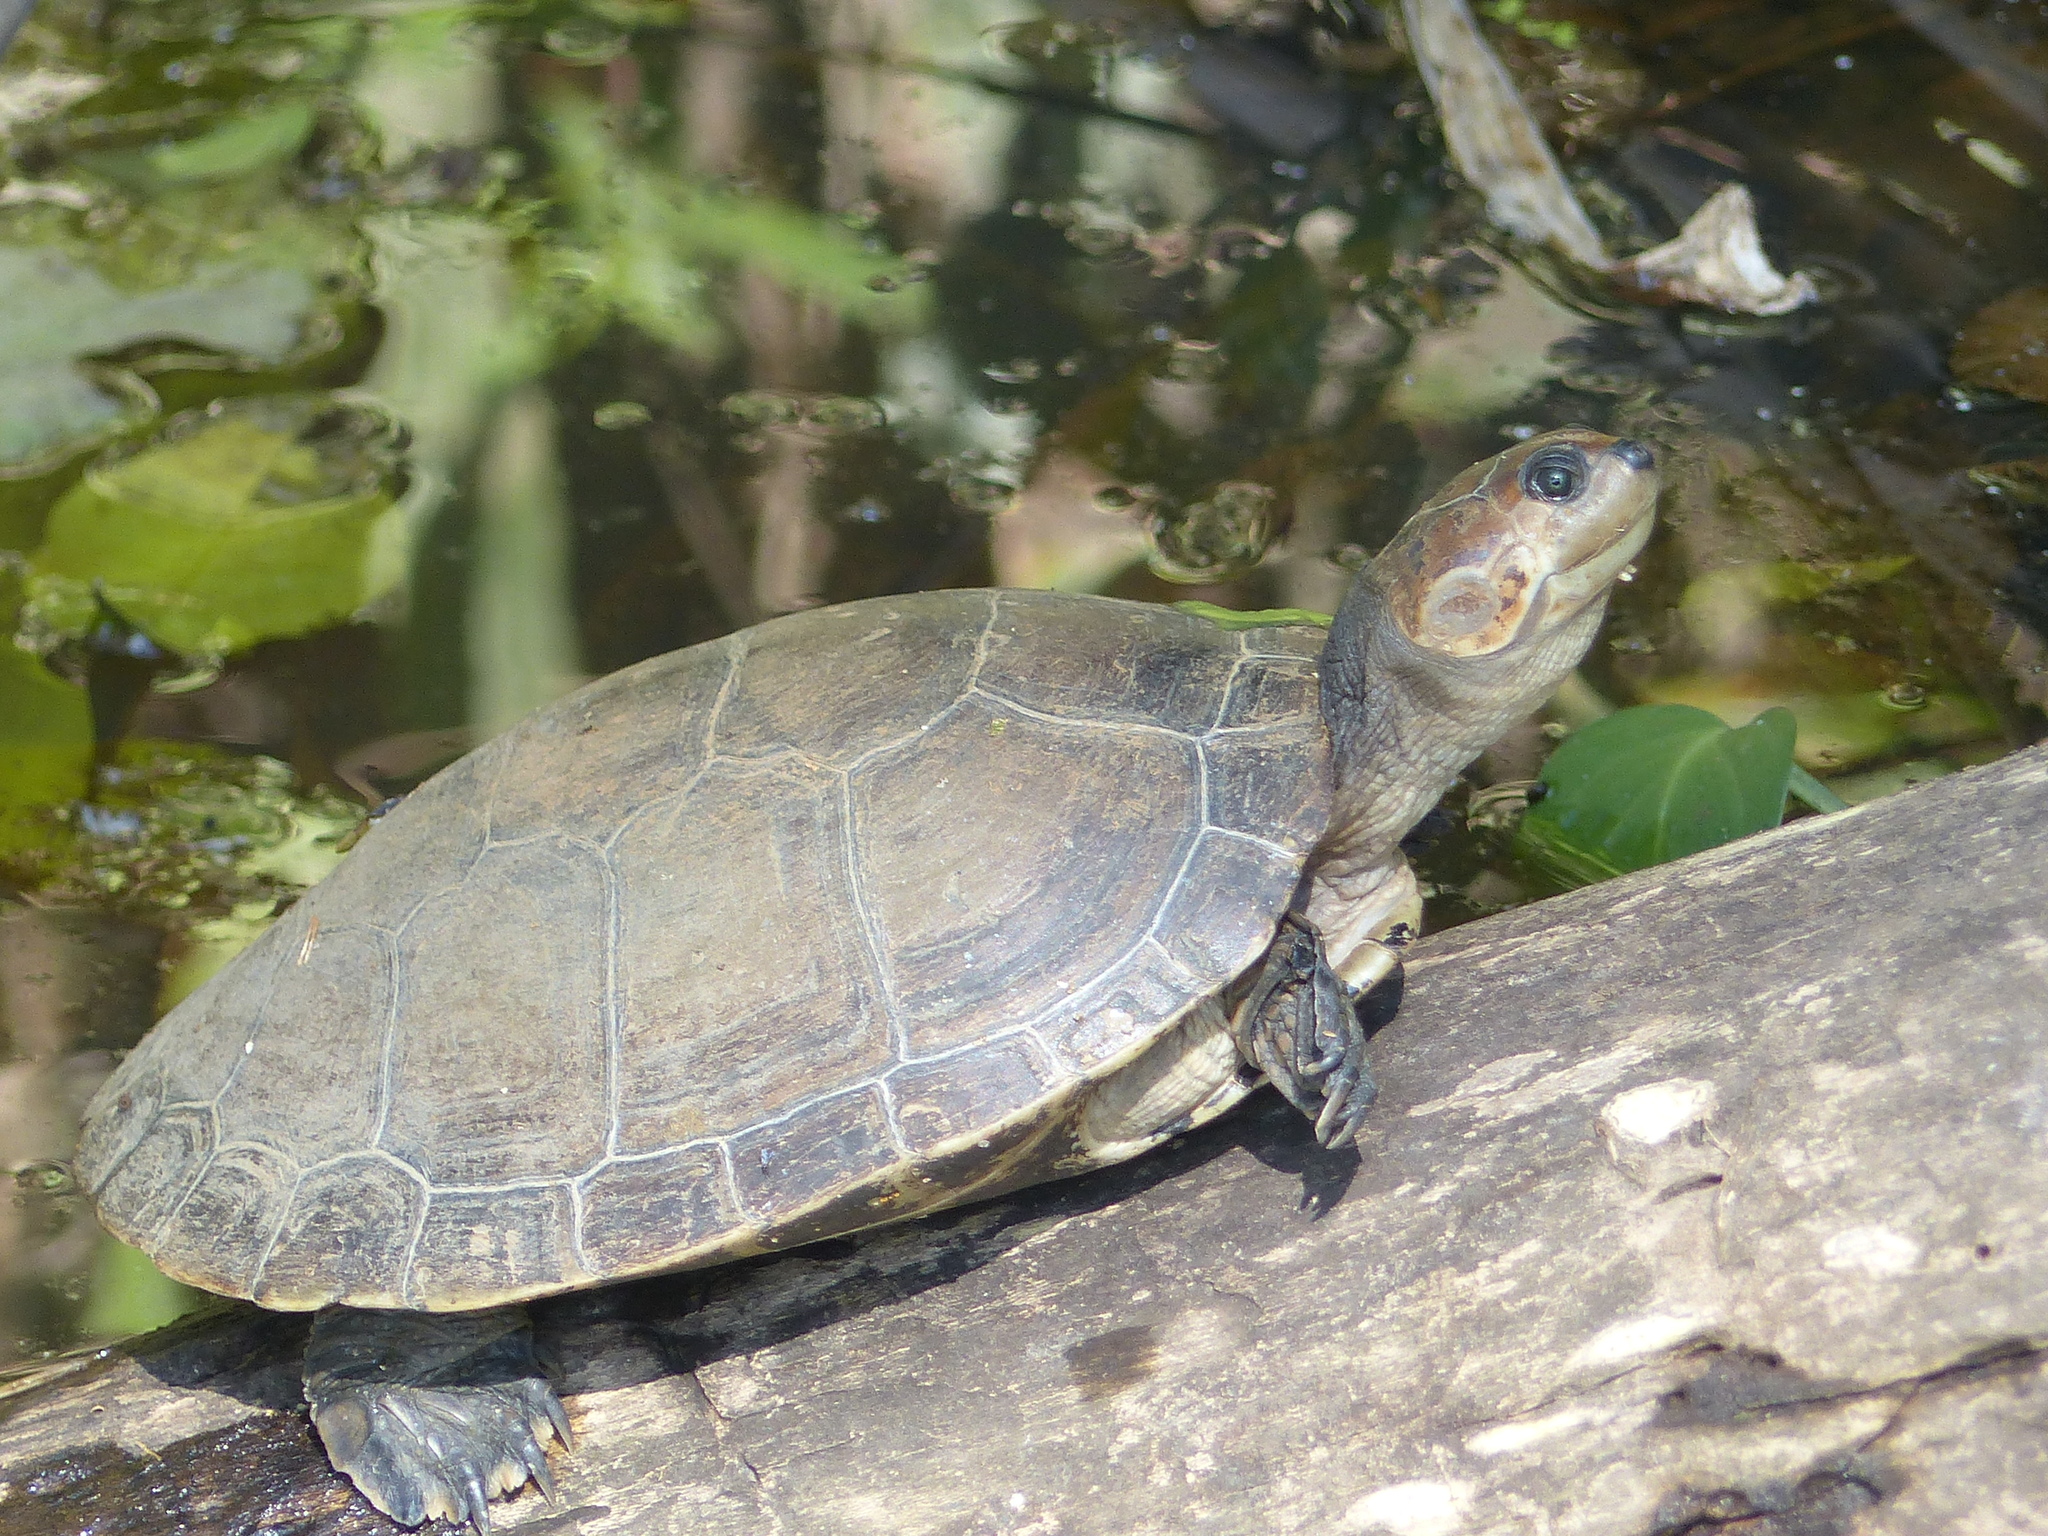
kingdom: Animalia
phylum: Chordata
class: Testudines
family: Podocnemididae
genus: Podocnemis
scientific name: Podocnemis vogli
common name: Savanna side-necked turtle
